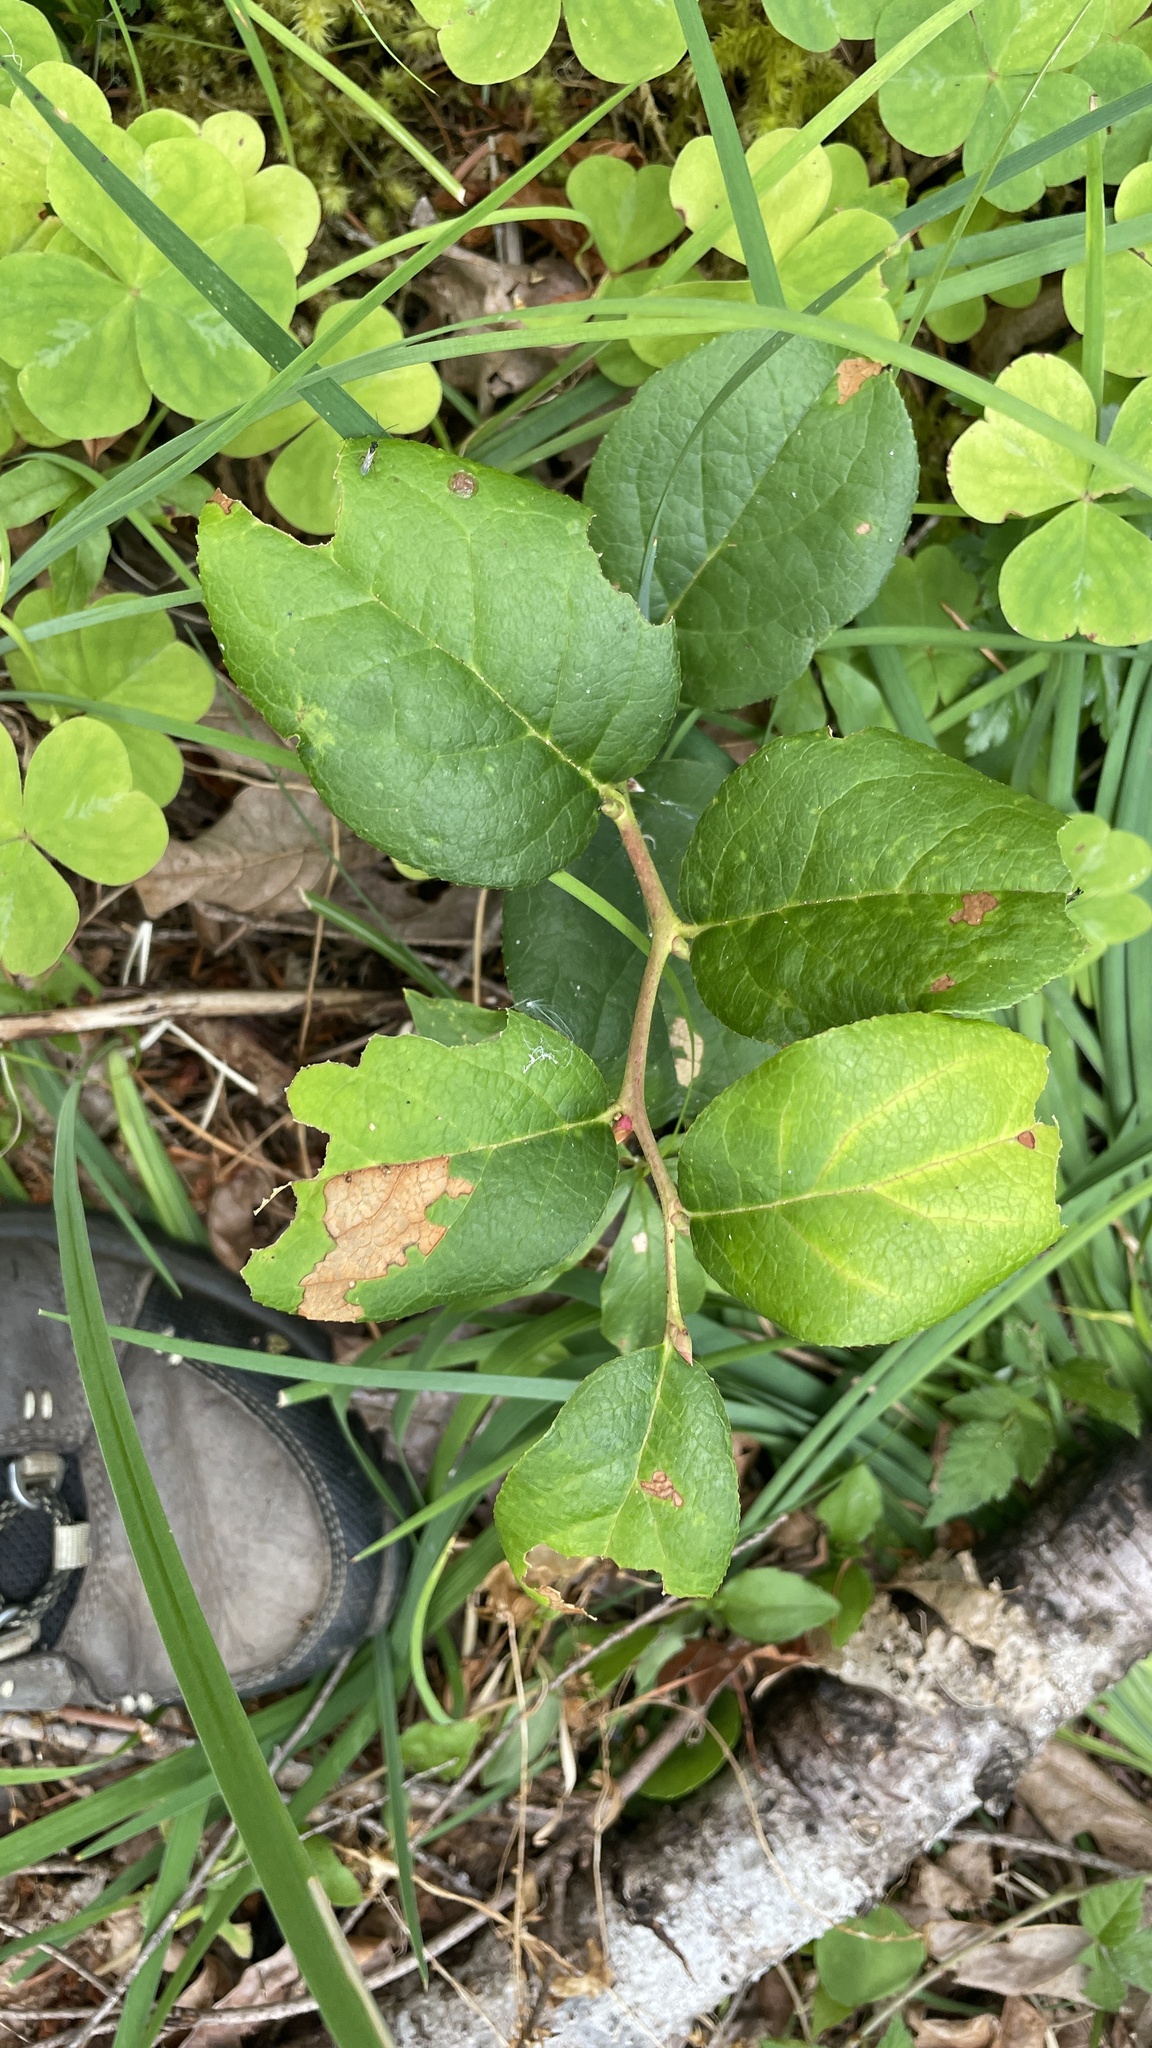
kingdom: Plantae
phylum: Tracheophyta
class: Magnoliopsida
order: Ericales
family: Ericaceae
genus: Gaultheria
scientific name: Gaultheria shallon
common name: Shallon
